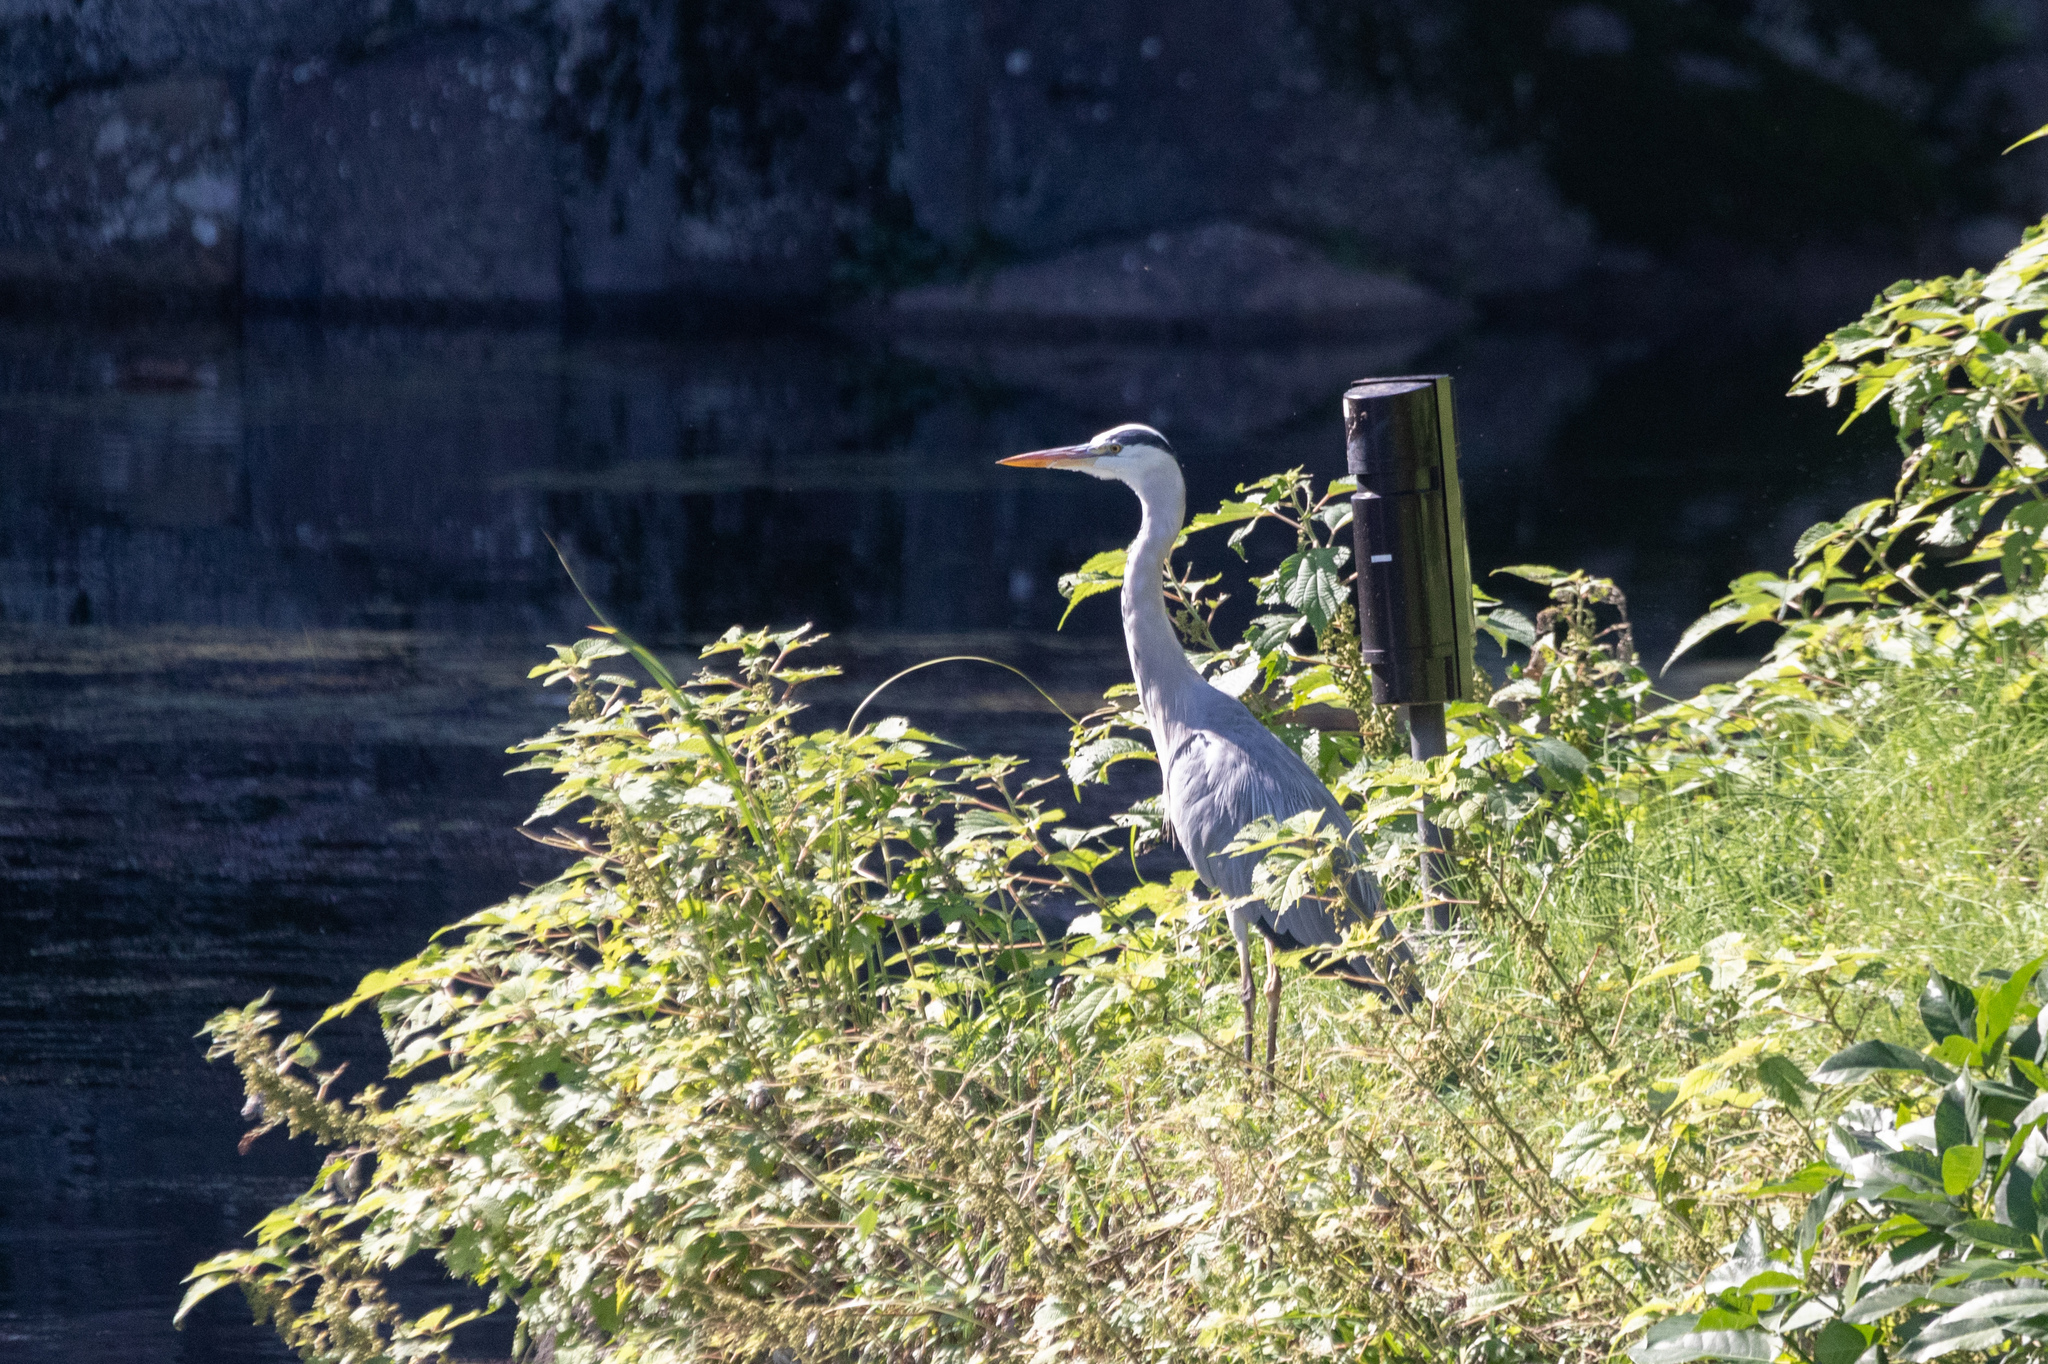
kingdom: Animalia
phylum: Chordata
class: Aves
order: Pelecaniformes
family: Ardeidae
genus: Ardea
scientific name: Ardea cinerea
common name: Grey heron
